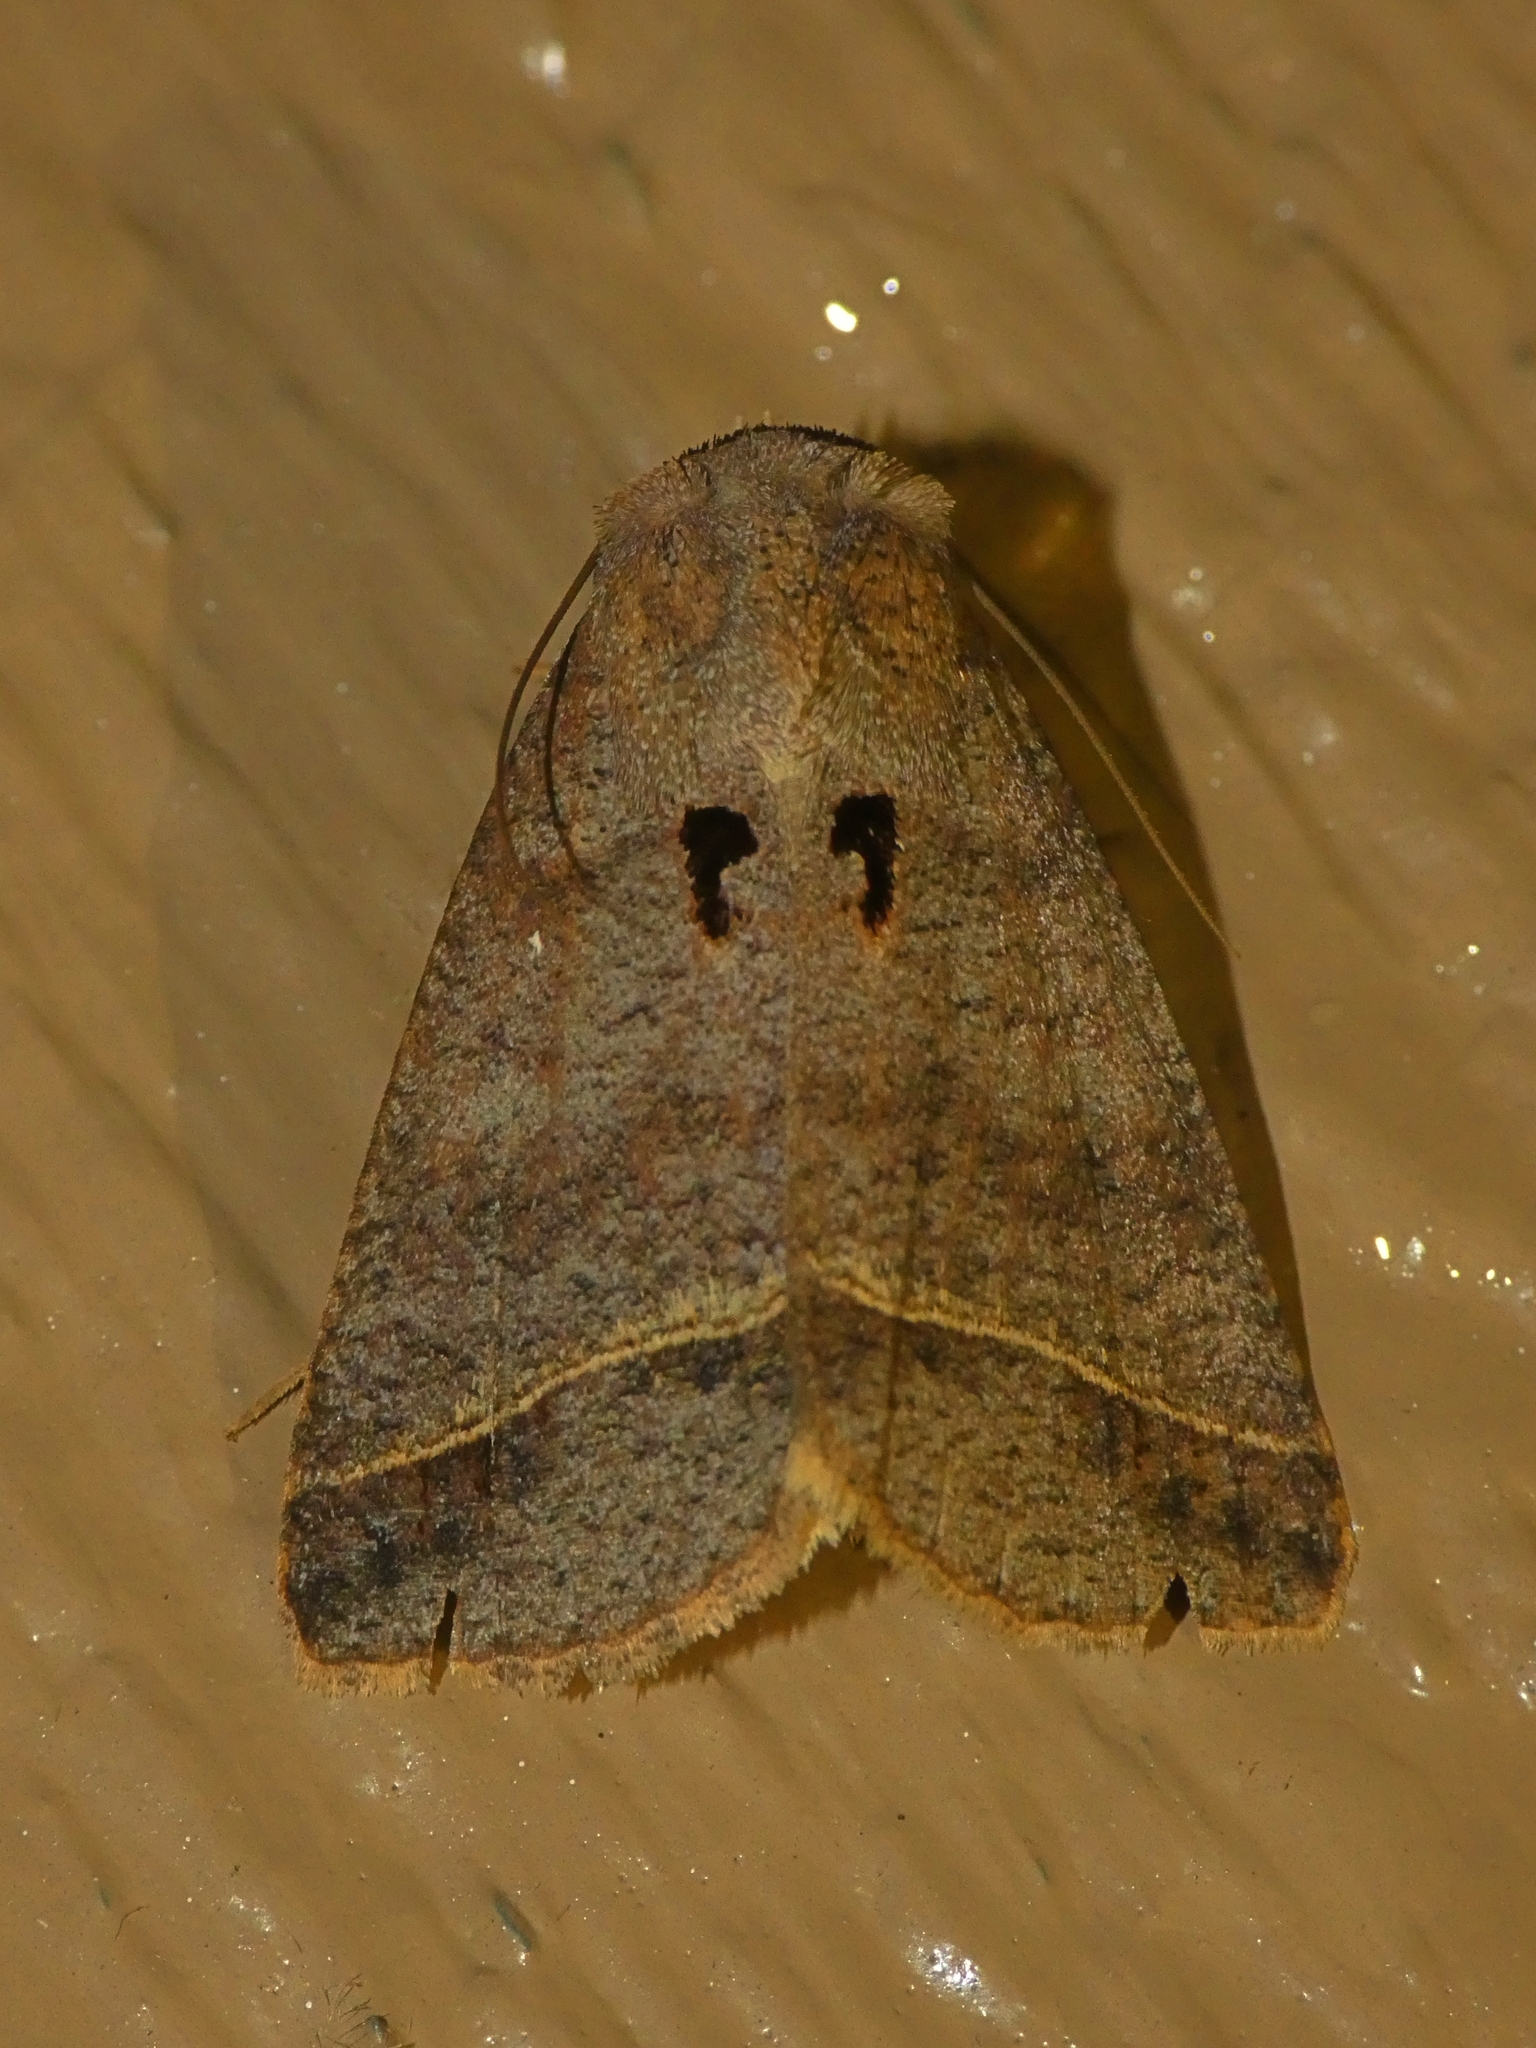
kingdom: Animalia
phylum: Arthropoda
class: Insecta
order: Lepidoptera
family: Erebidae
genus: Pantydia
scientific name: Pantydia metaspila
